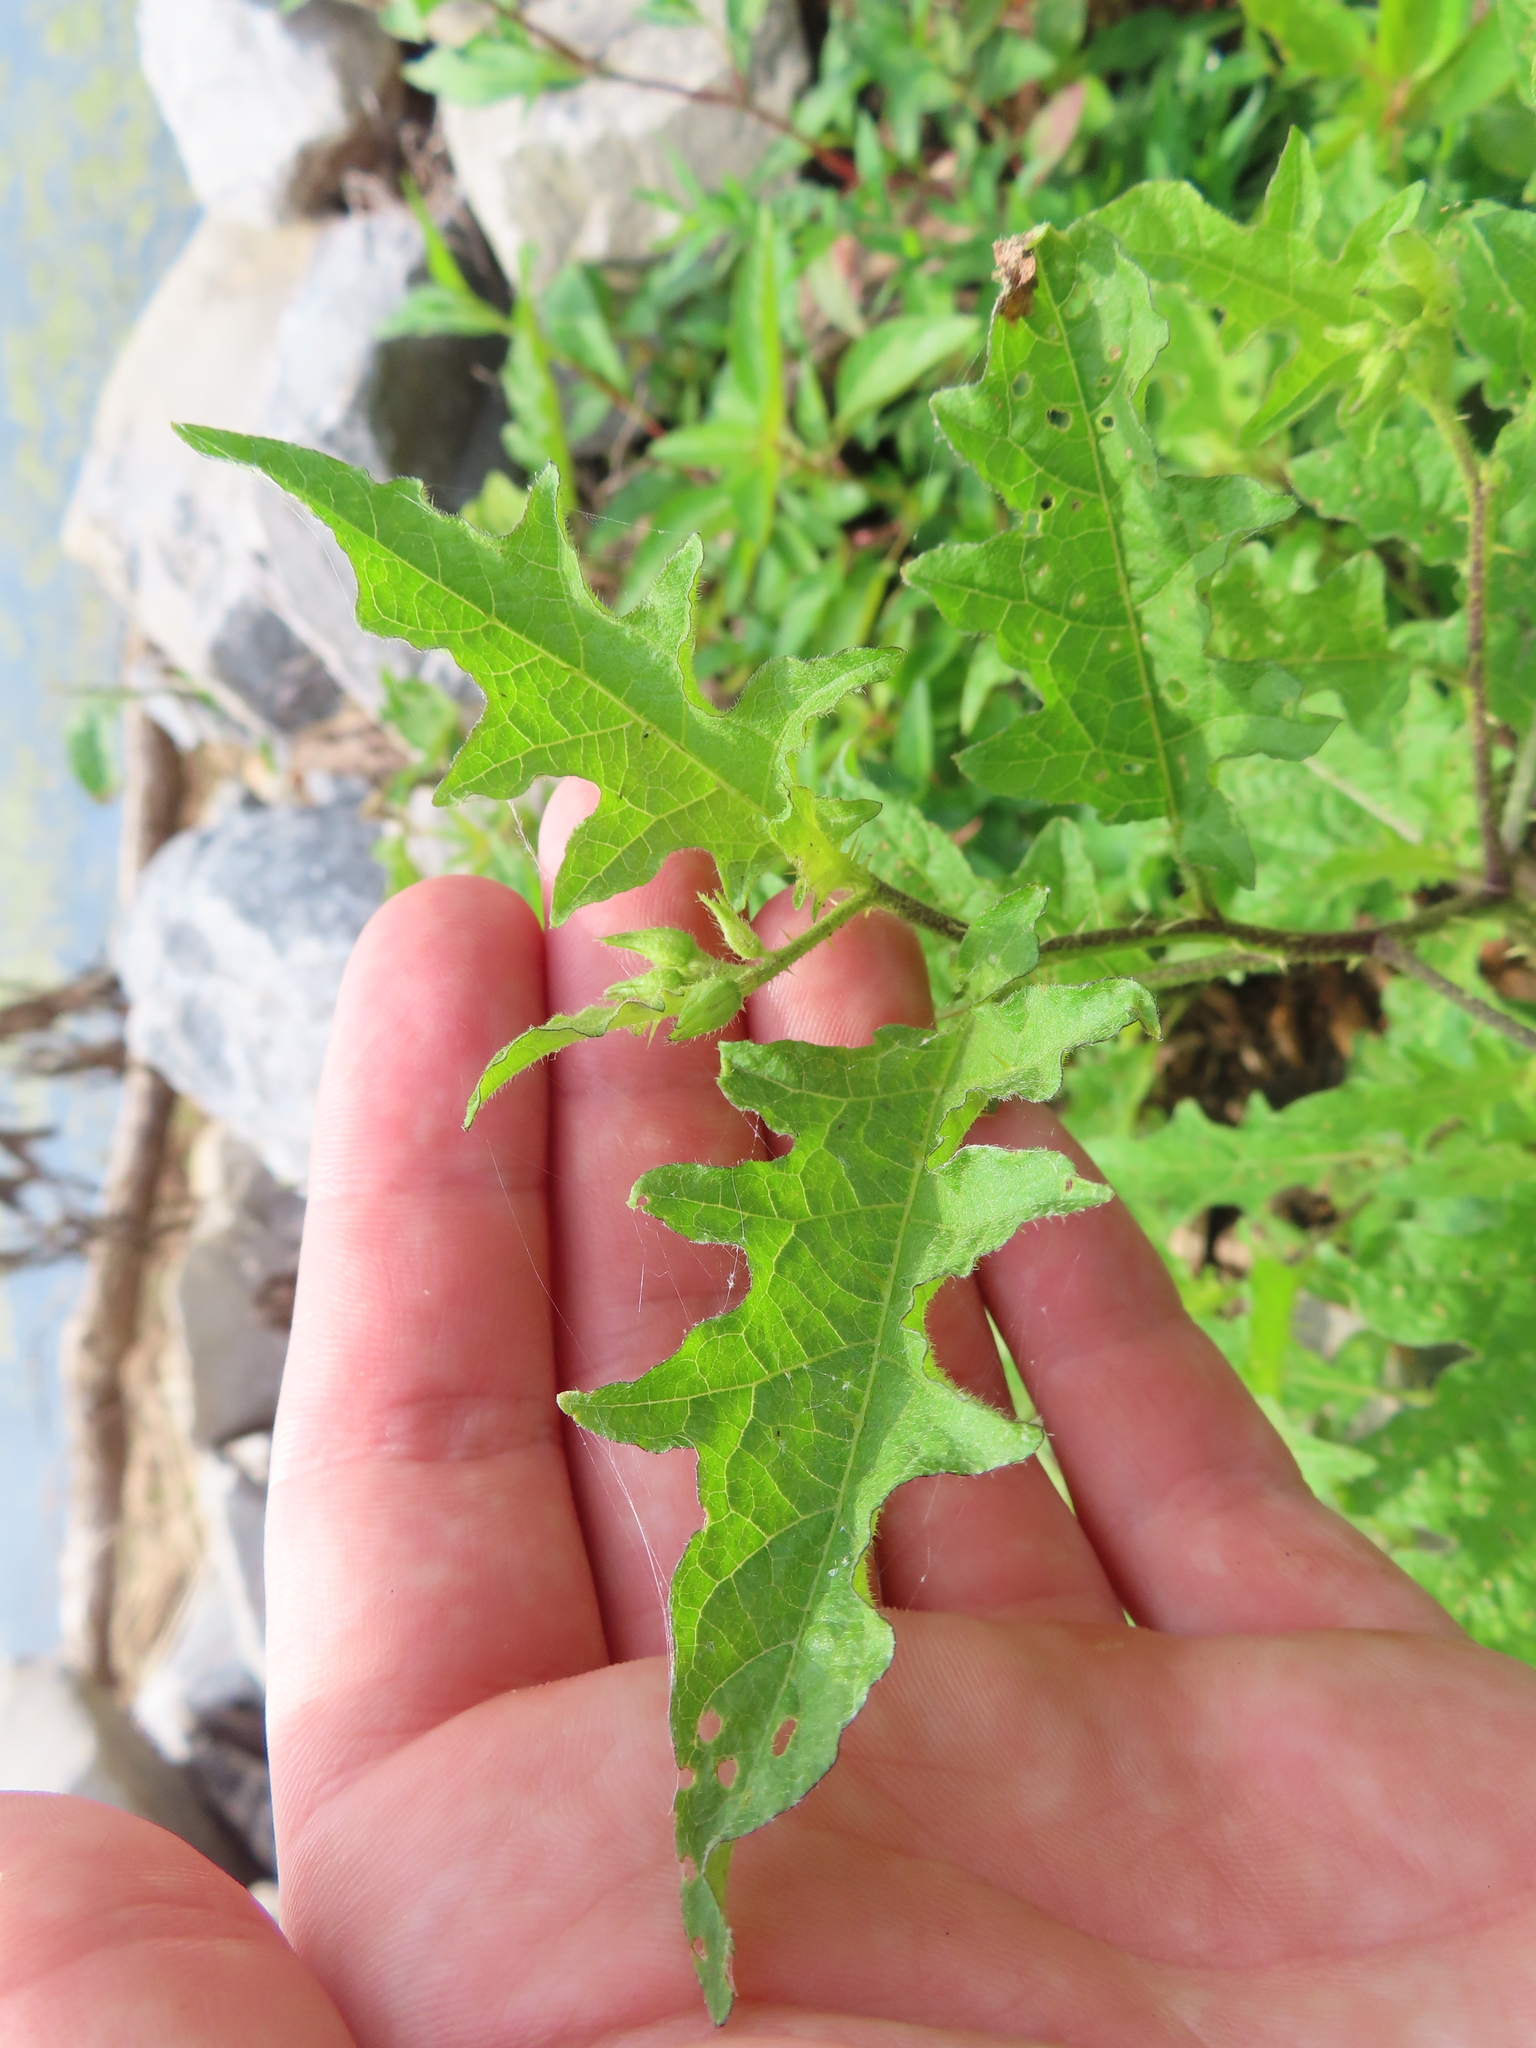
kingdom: Plantae
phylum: Tracheophyta
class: Magnoliopsida
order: Solanales
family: Solanaceae
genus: Solanum
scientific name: Solanum carolinense
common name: Horse-nettle
